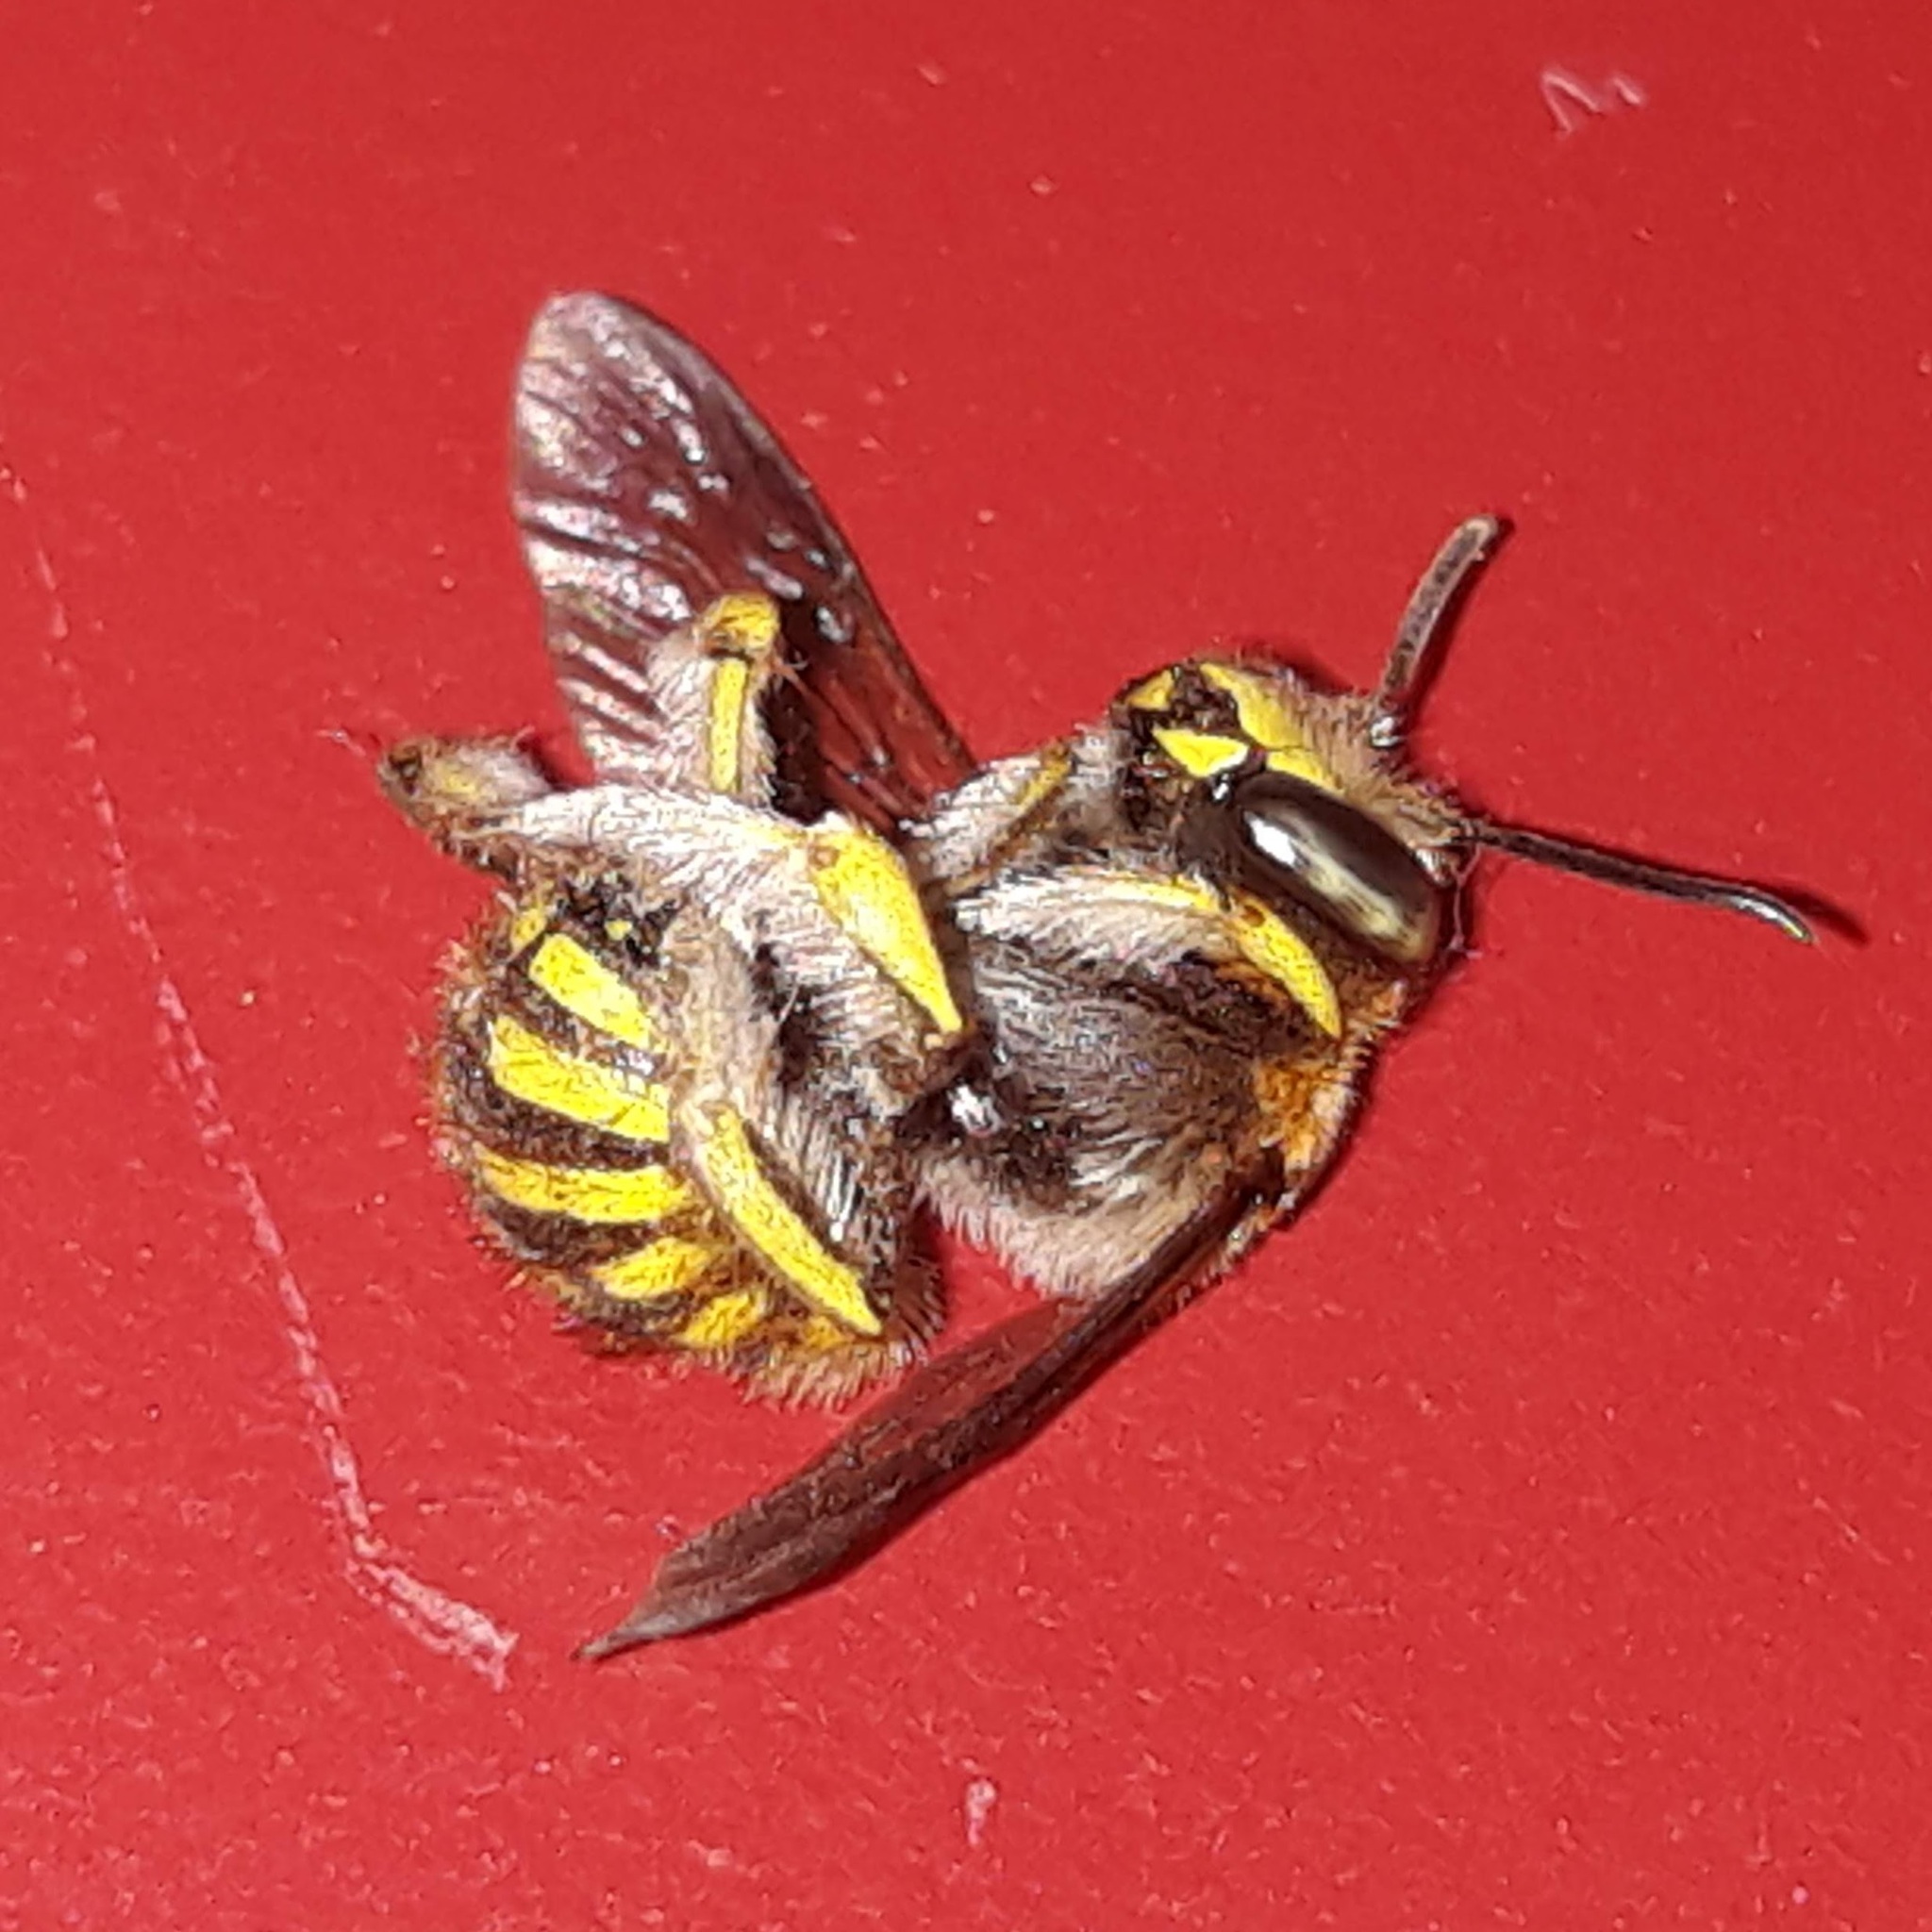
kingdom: Animalia
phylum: Arthropoda
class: Insecta
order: Hymenoptera
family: Megachilidae
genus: Anthidium
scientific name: Anthidium manicatum
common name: Wool carder bee
